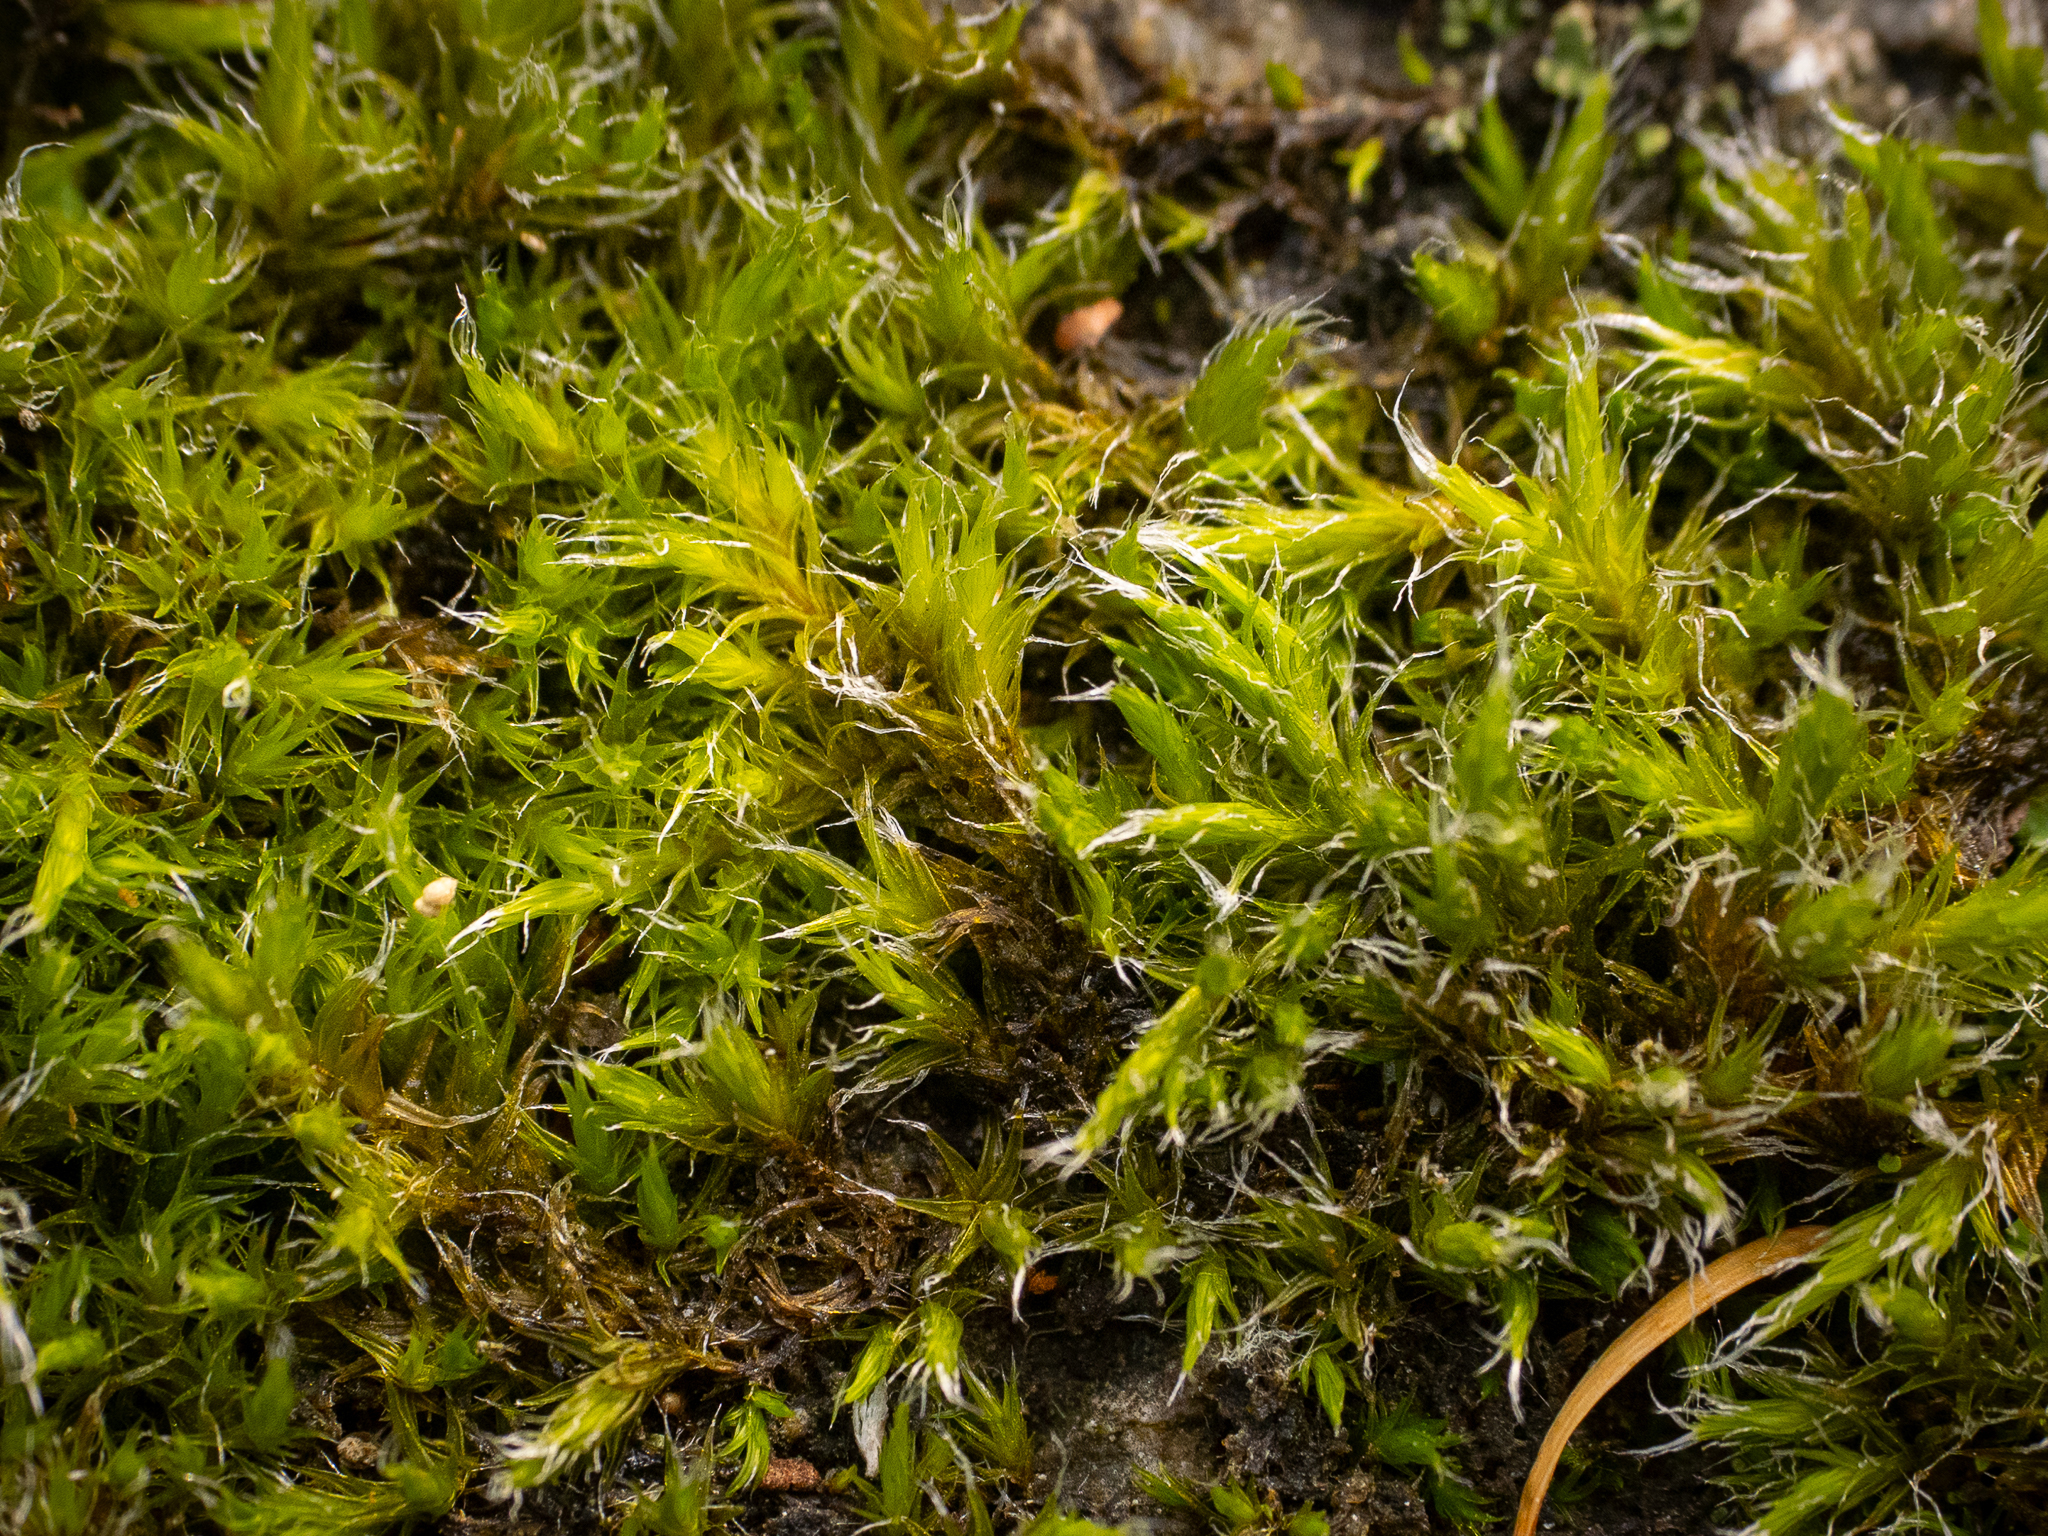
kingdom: Plantae
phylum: Bryophyta
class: Bryopsida
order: Grimmiales
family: Grimmiaceae
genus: Bucklandiella
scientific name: Bucklandiella heterosticha
